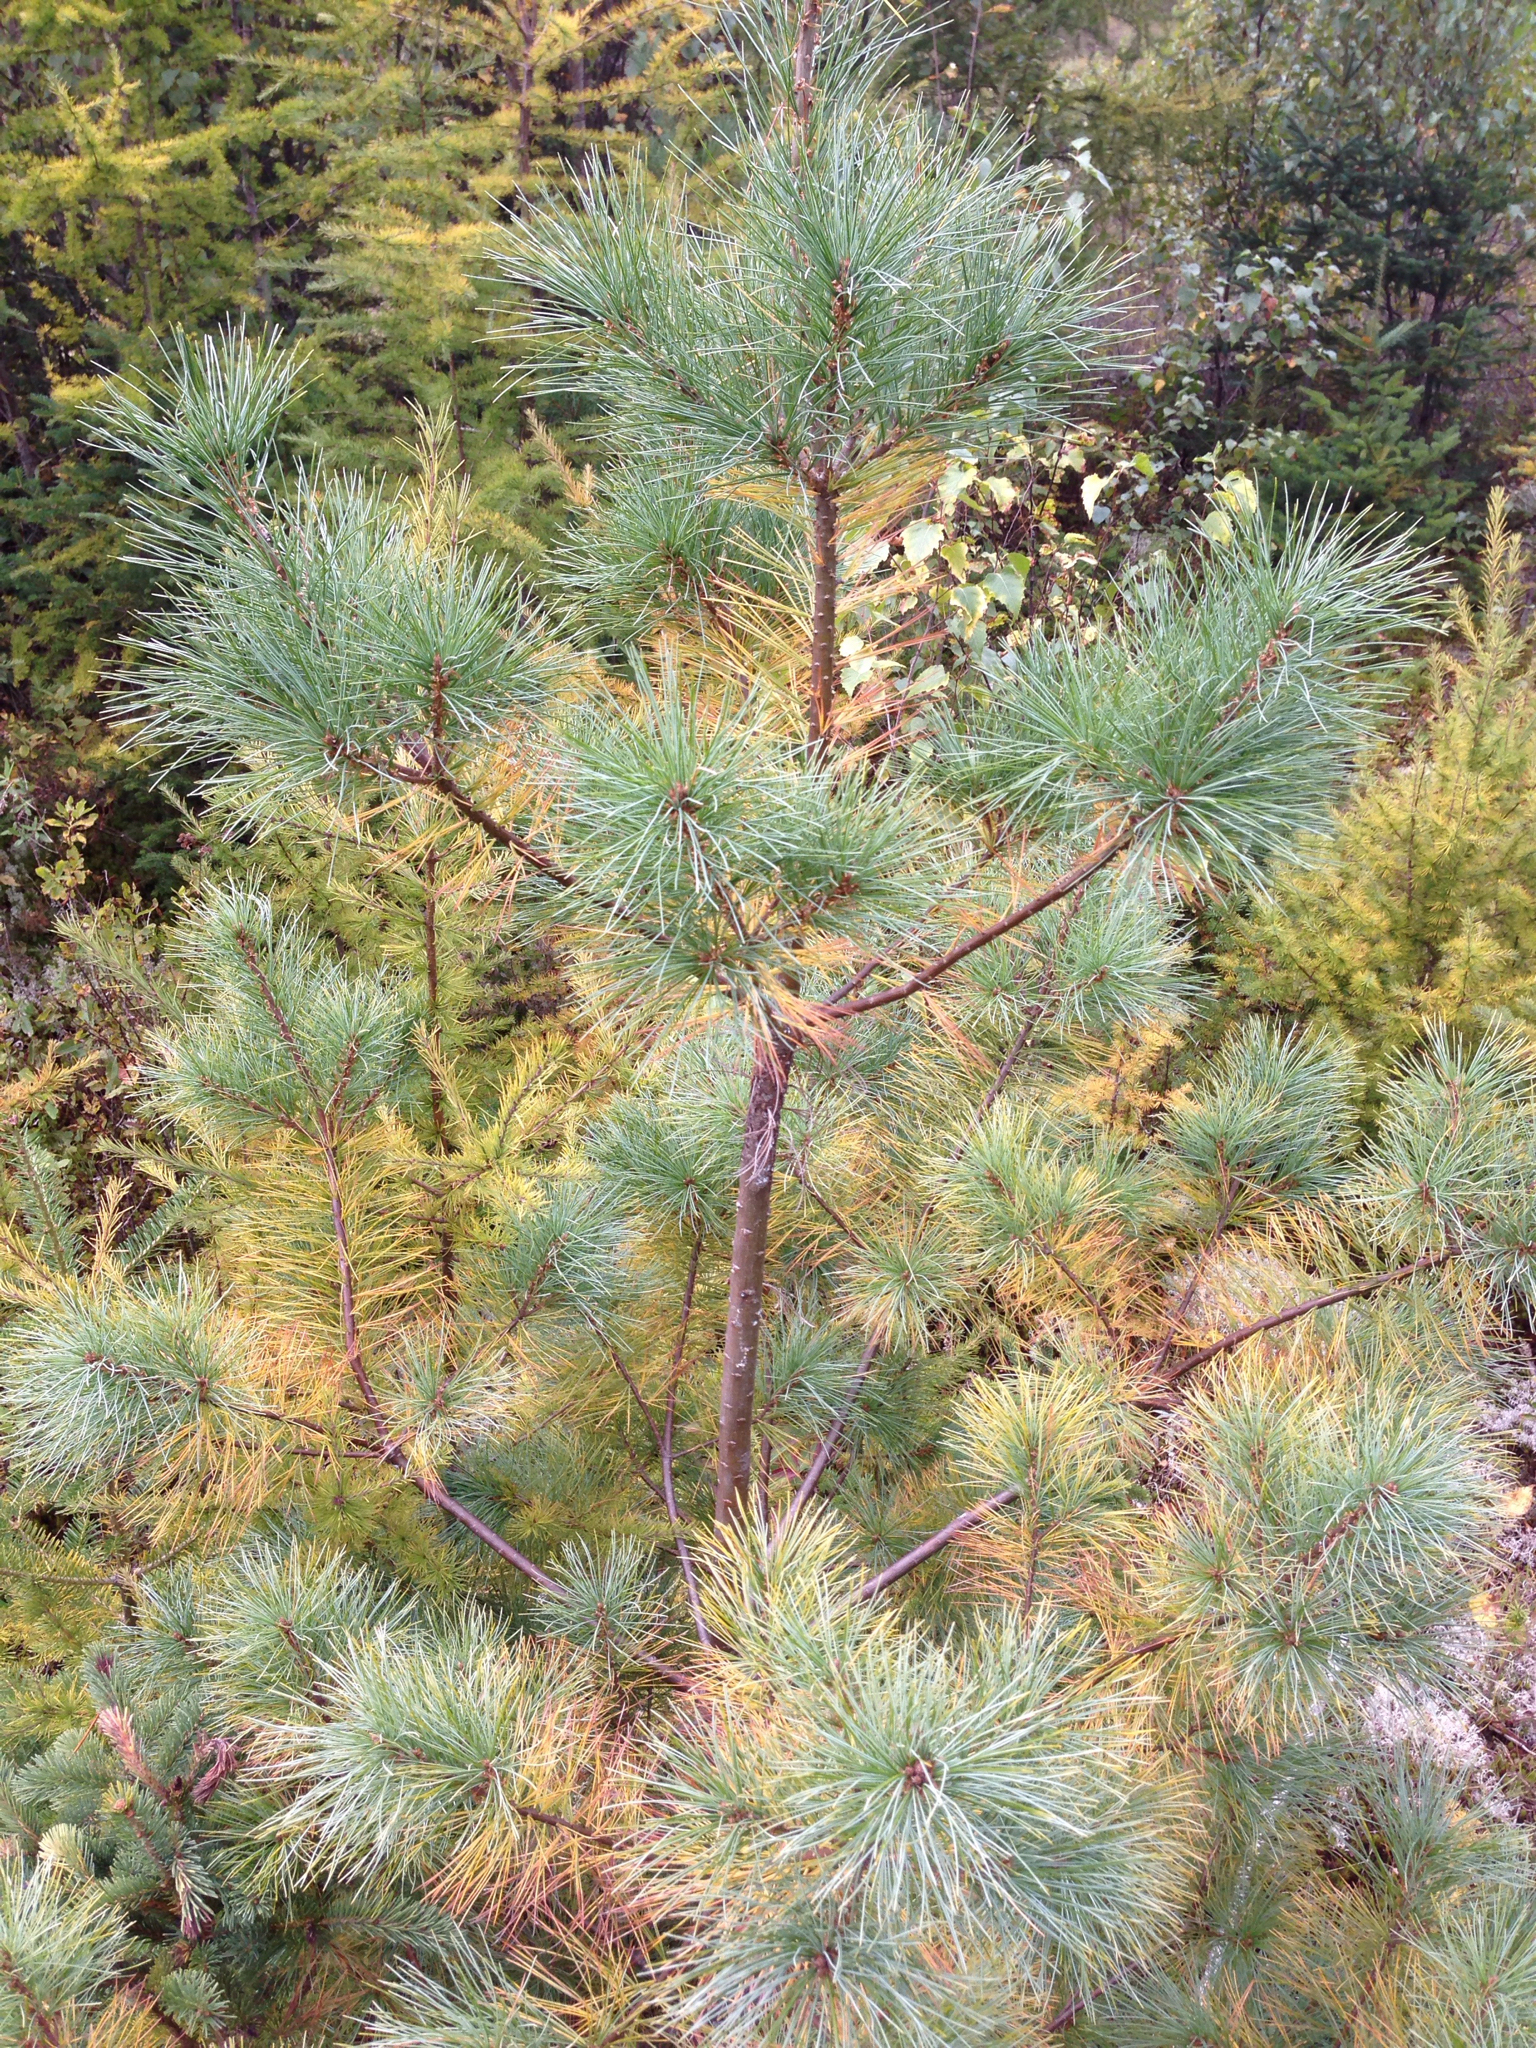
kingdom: Plantae
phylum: Tracheophyta
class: Pinopsida
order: Pinales
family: Pinaceae
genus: Pinus
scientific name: Pinus strobus
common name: Weymouth pine
